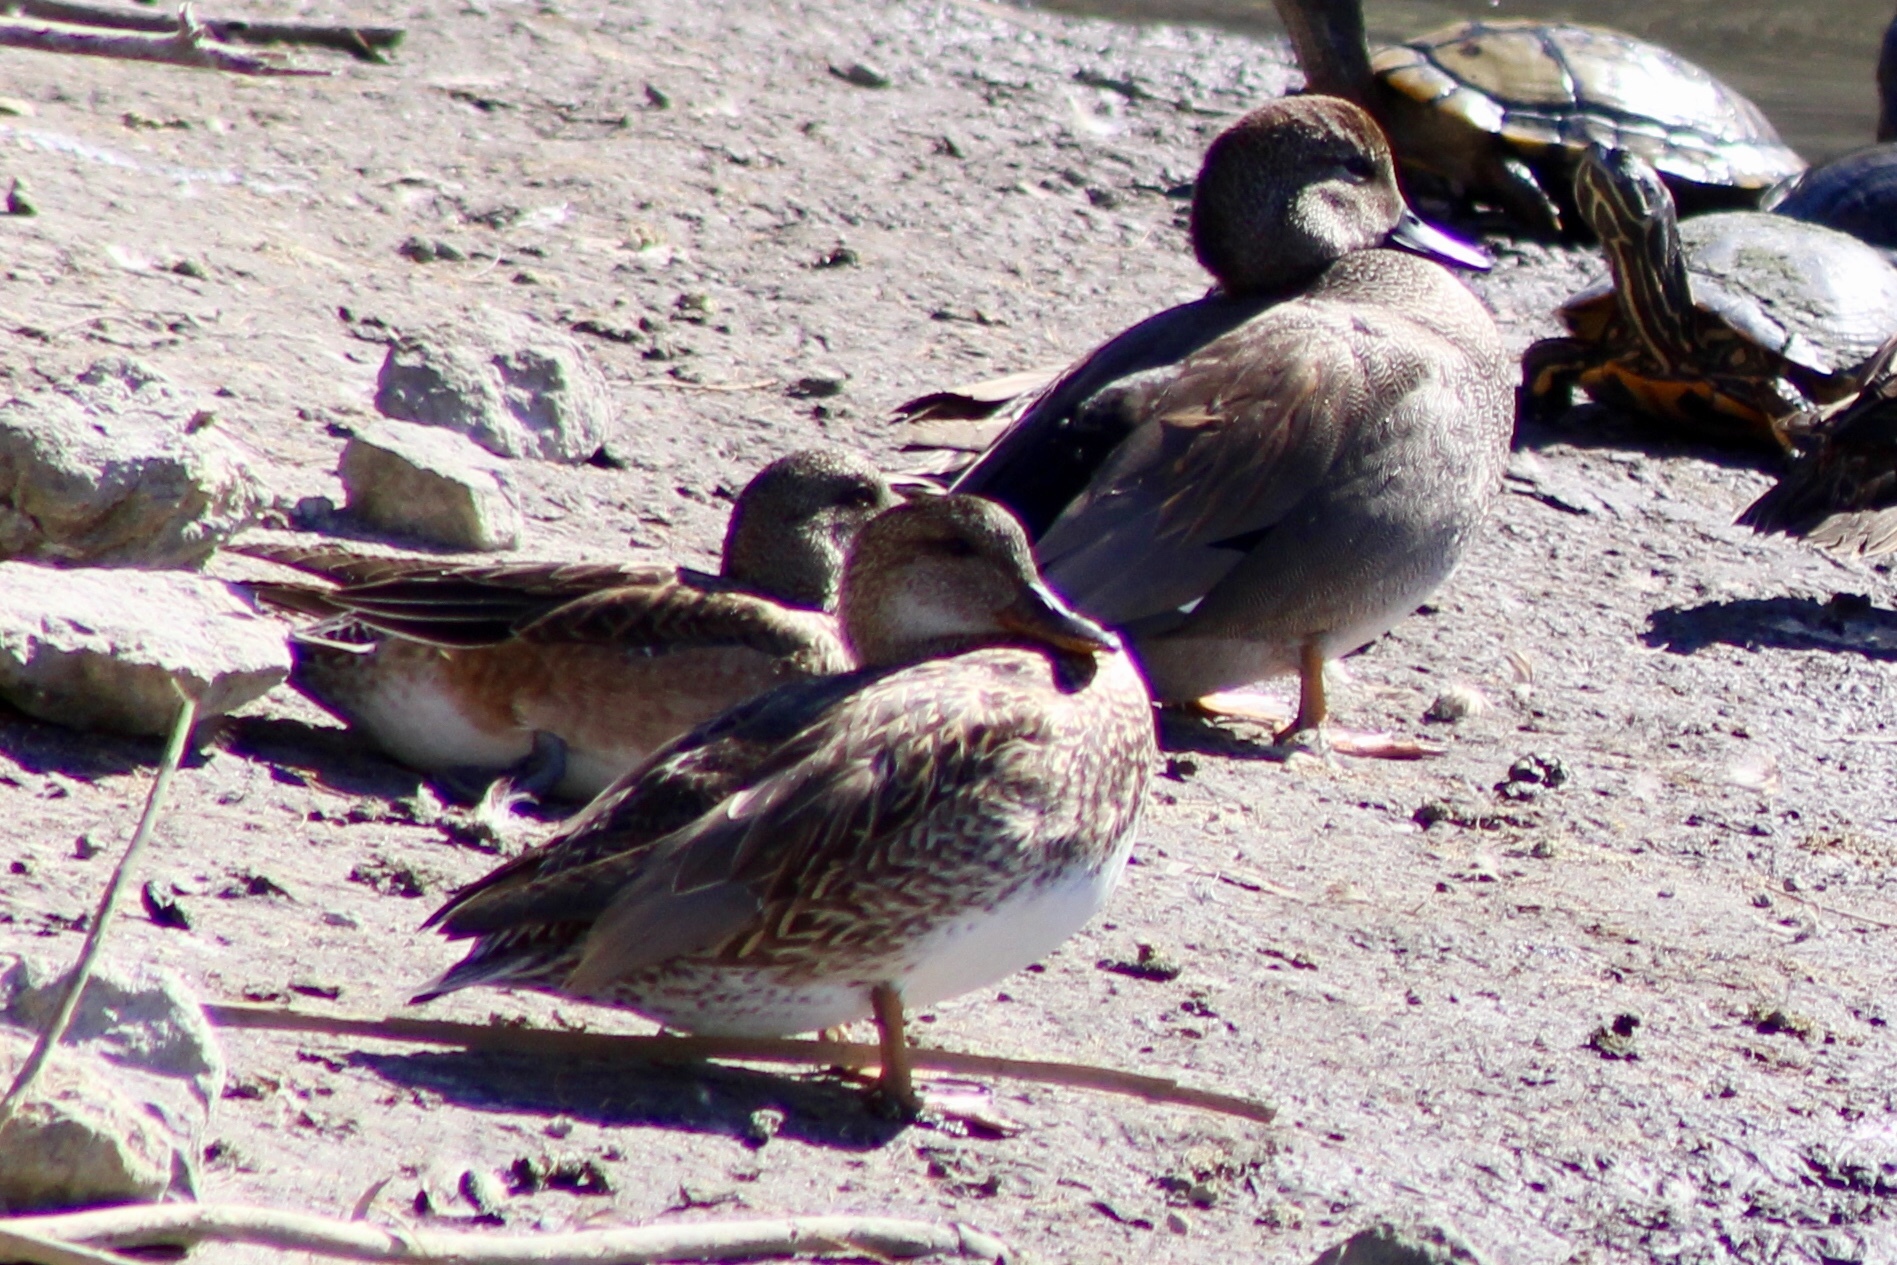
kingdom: Animalia
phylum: Chordata
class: Aves
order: Anseriformes
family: Anatidae
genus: Mareca
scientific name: Mareca strepera
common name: Gadwall
